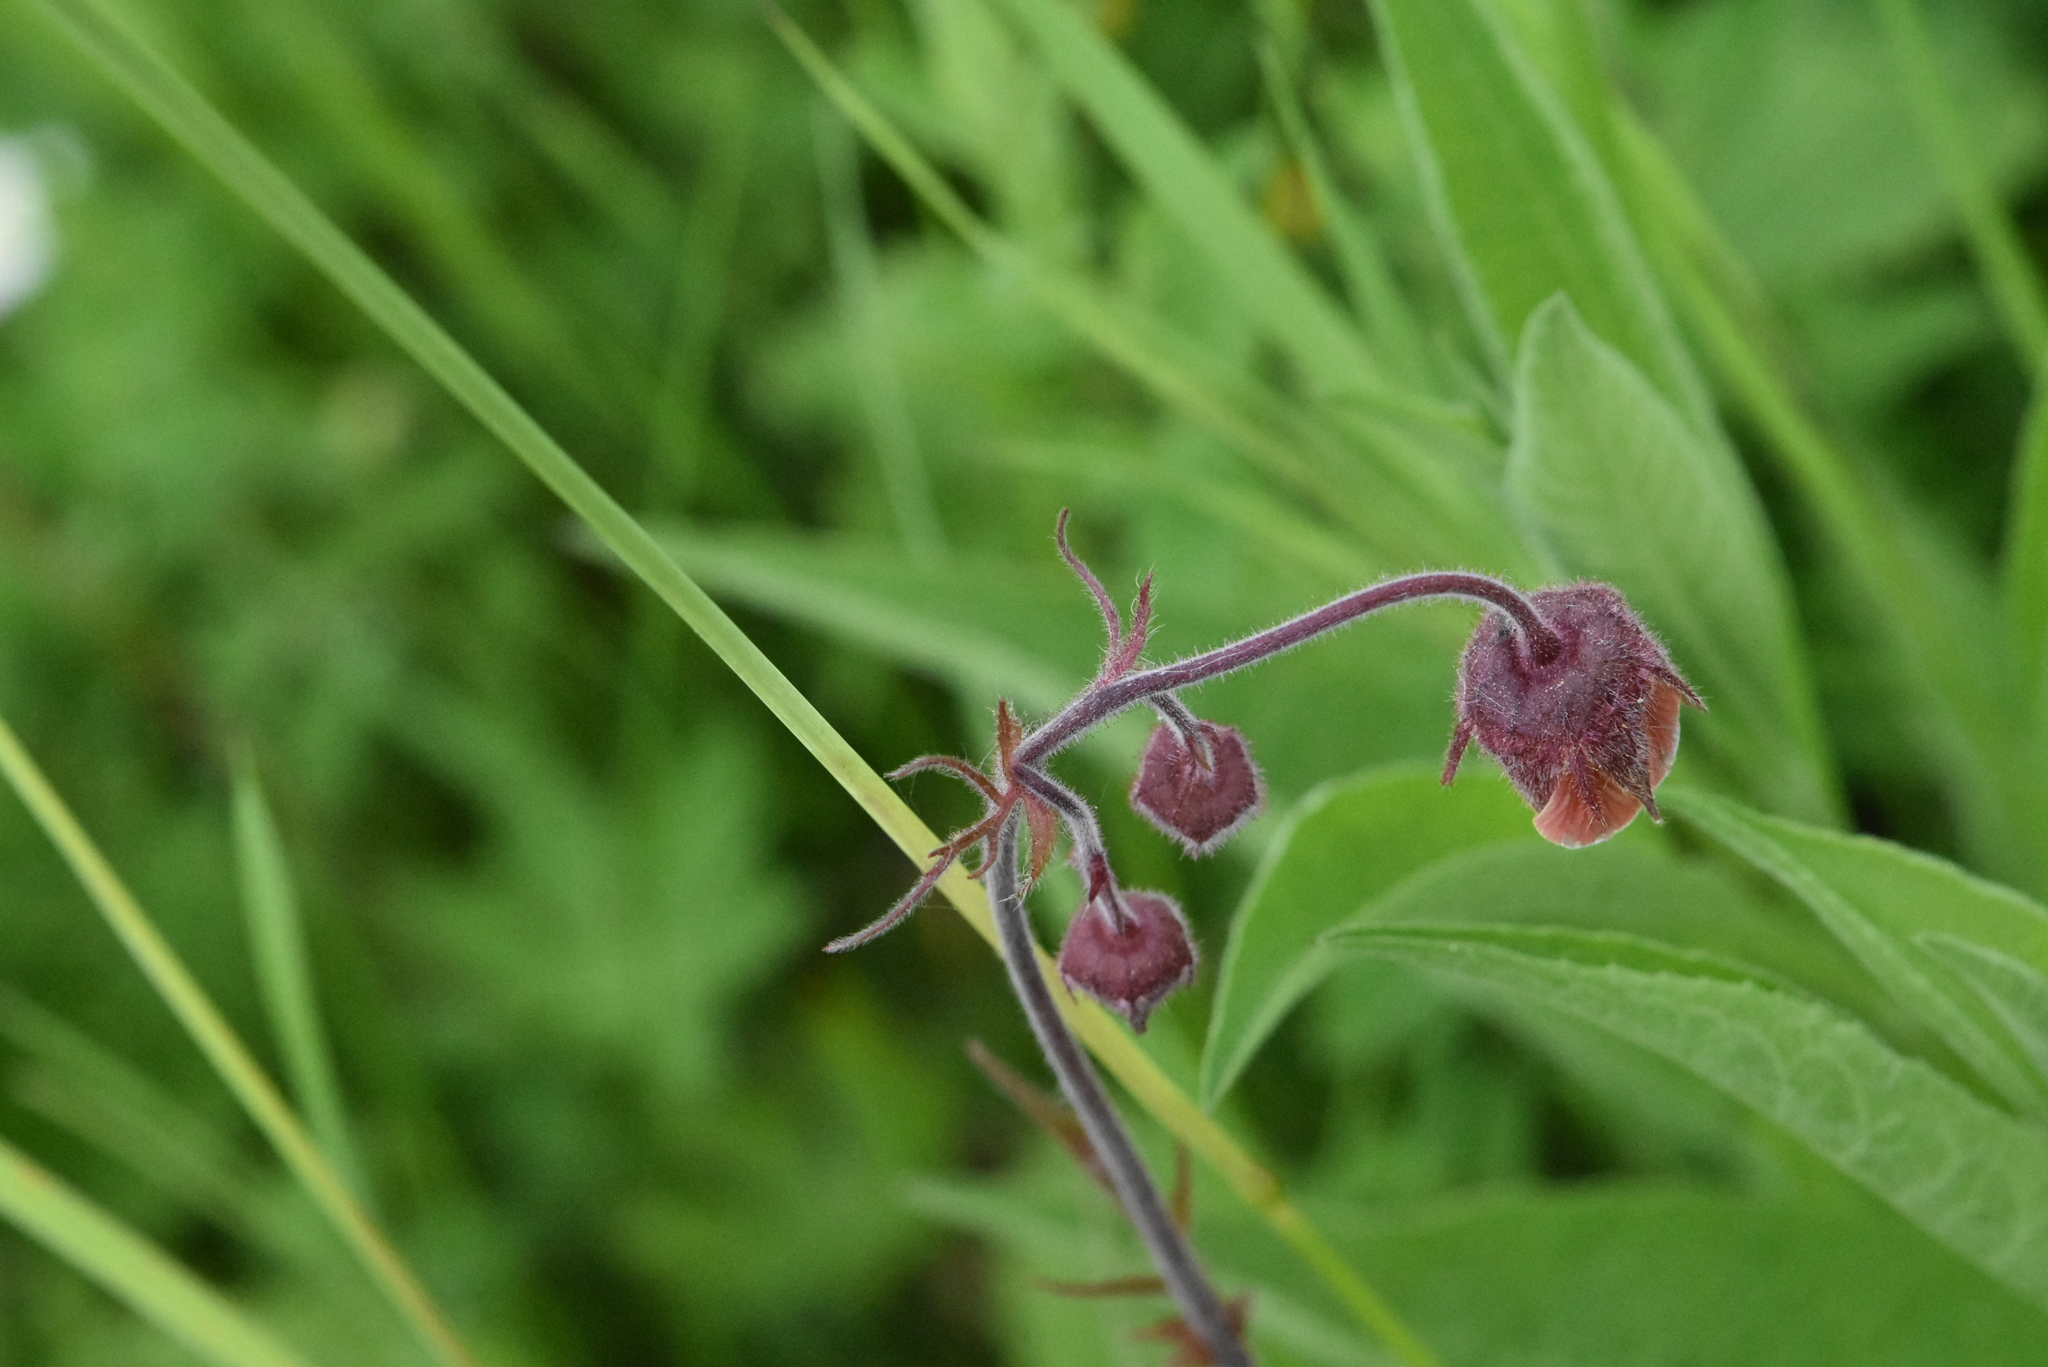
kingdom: Plantae
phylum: Tracheophyta
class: Magnoliopsida
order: Rosales
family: Rosaceae
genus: Geum
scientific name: Geum rivale
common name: Water avens
